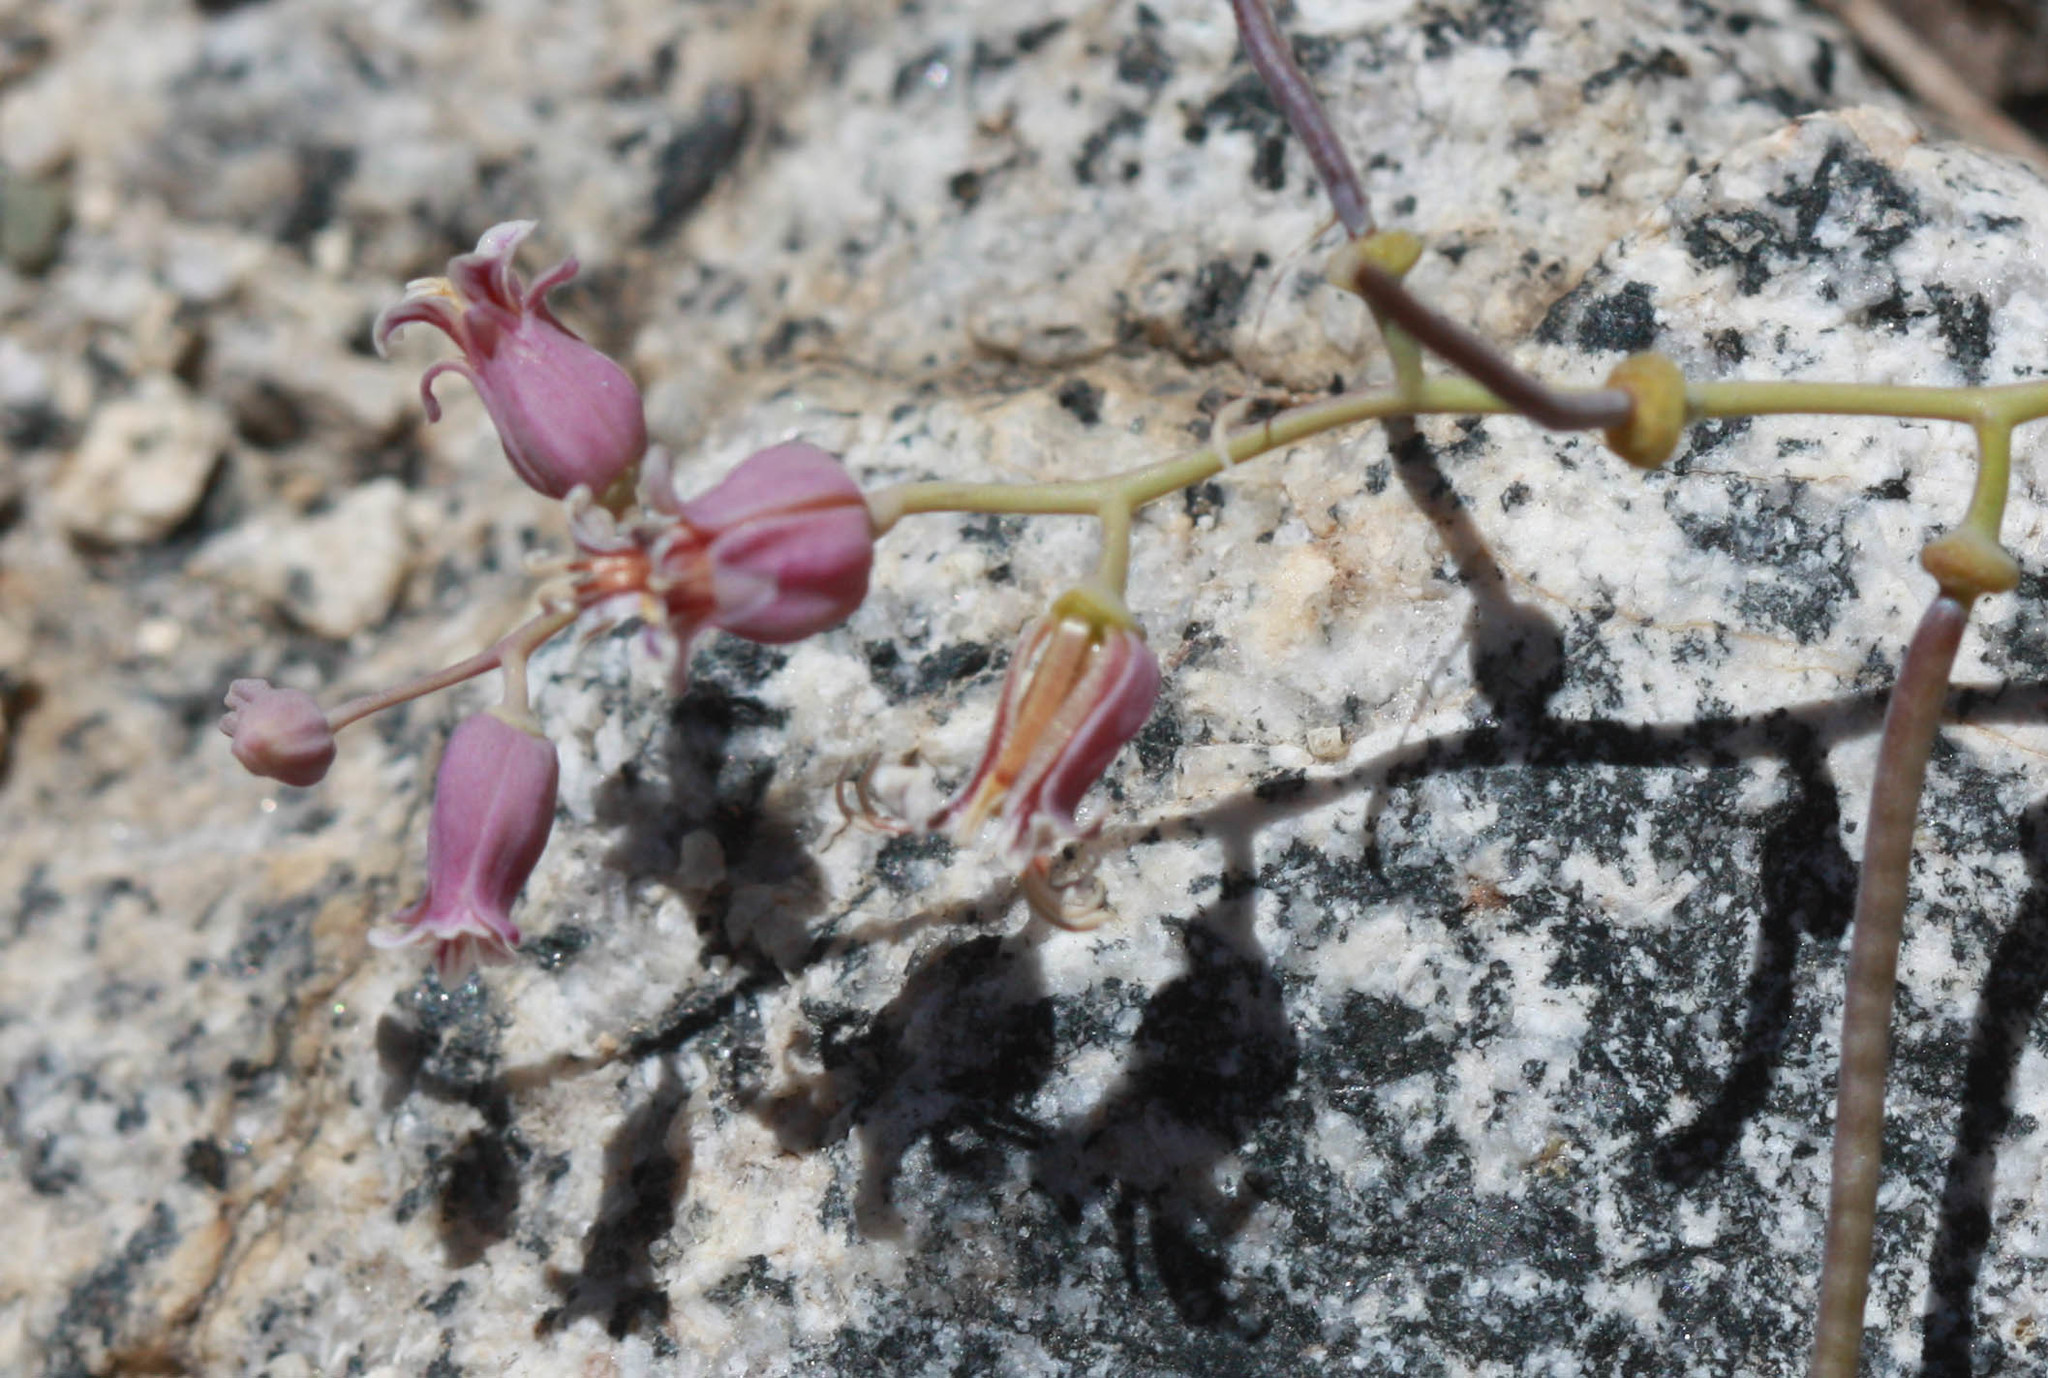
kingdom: Plantae
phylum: Tracheophyta
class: Magnoliopsida
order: Brassicales
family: Brassicaceae
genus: Streptanthus
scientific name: Streptanthus tortuosus
